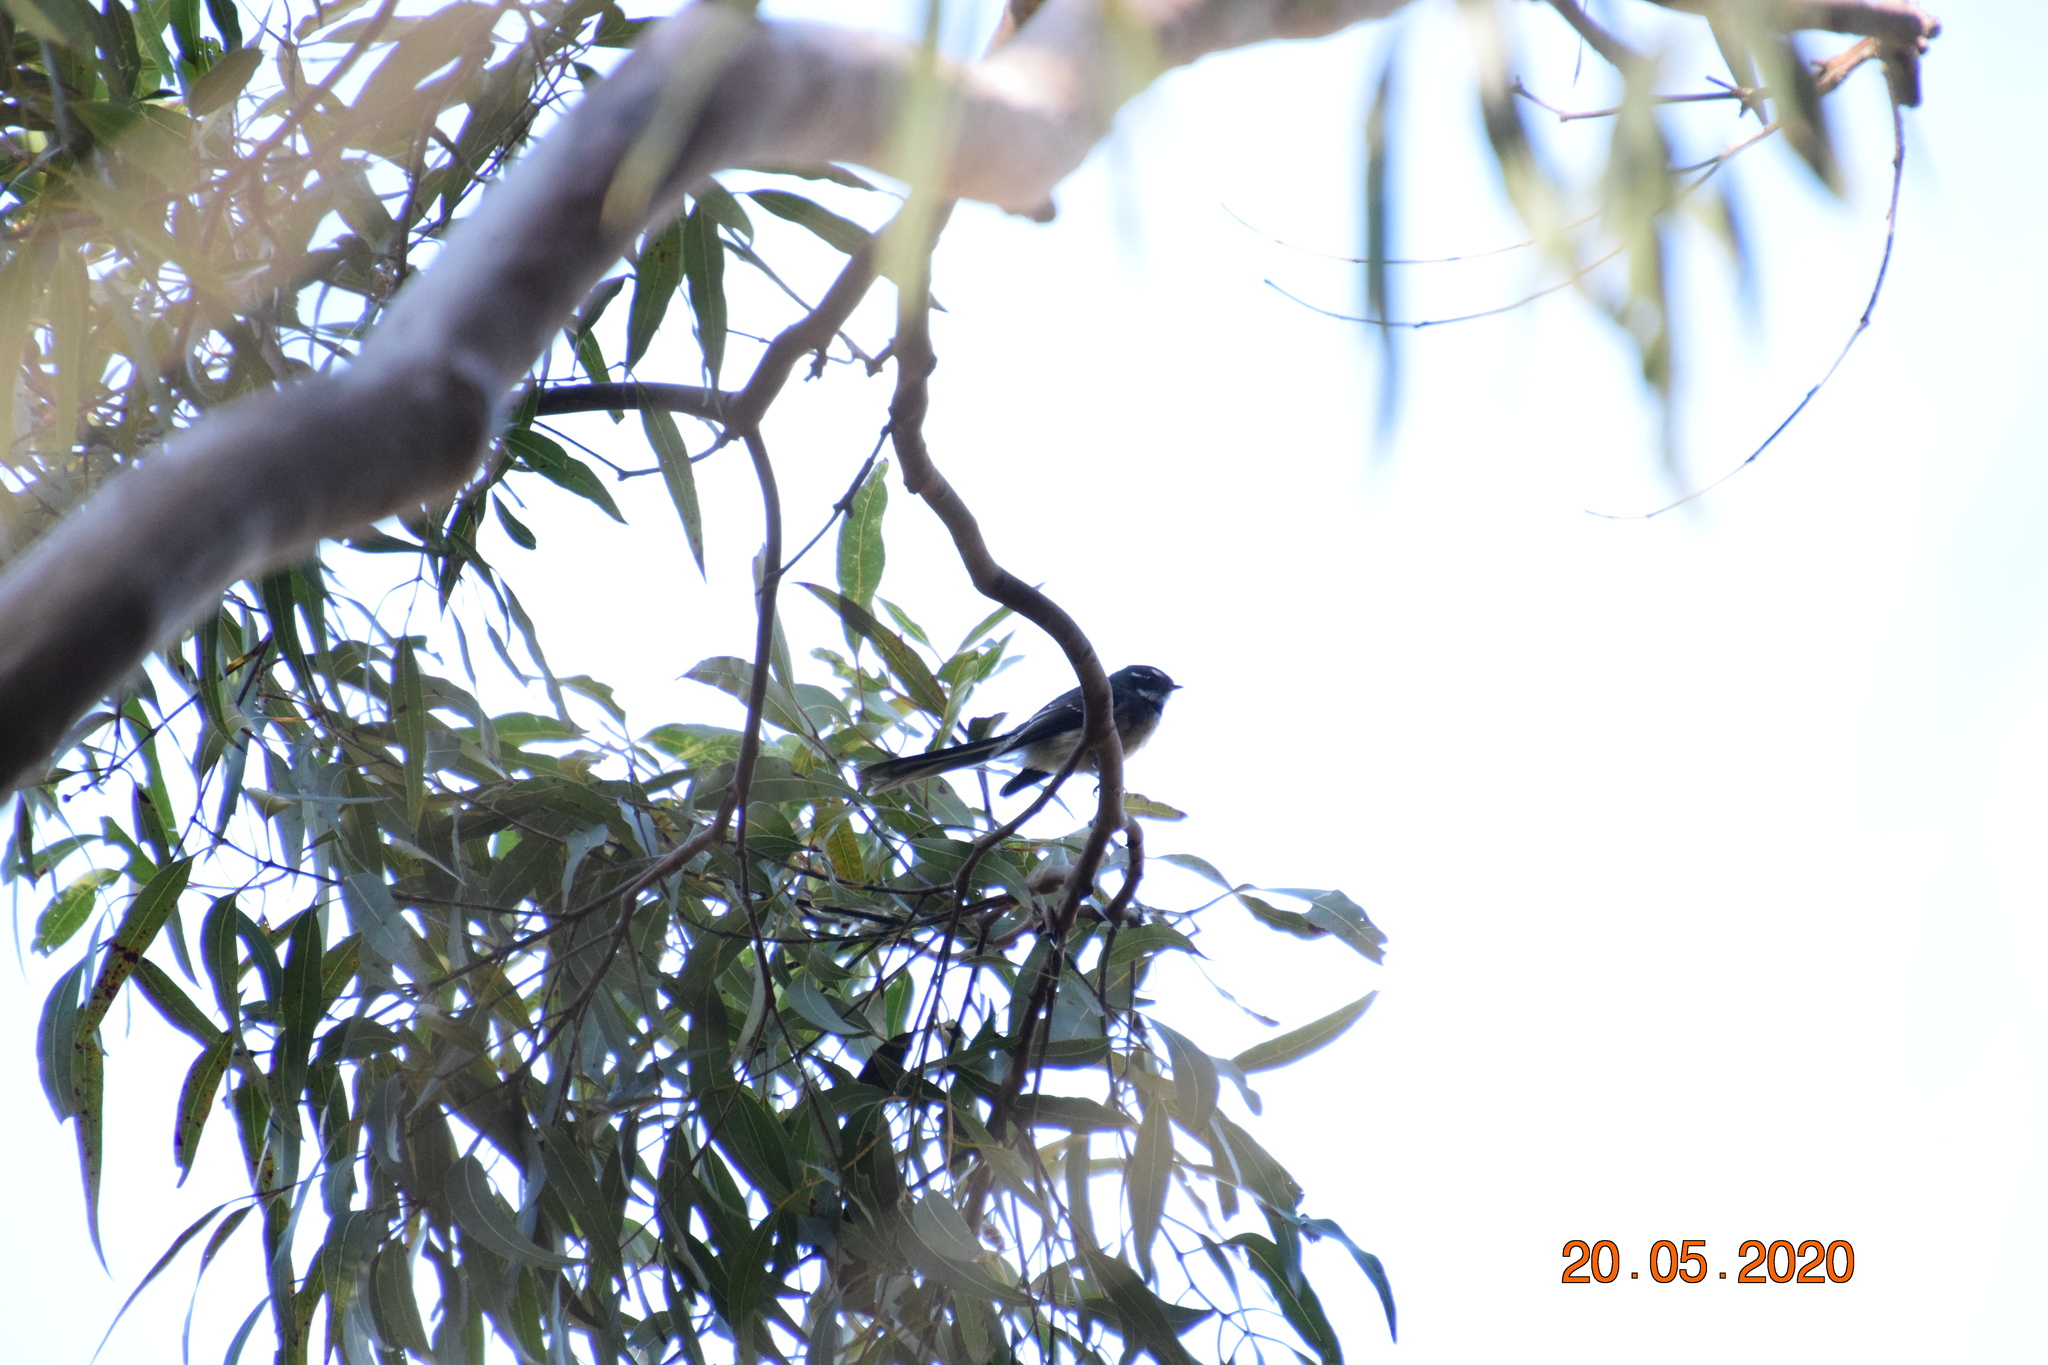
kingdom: Animalia
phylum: Chordata
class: Aves
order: Passeriformes
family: Rhipiduridae
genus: Rhipidura
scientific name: Rhipidura albiscapa
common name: Grey fantail
